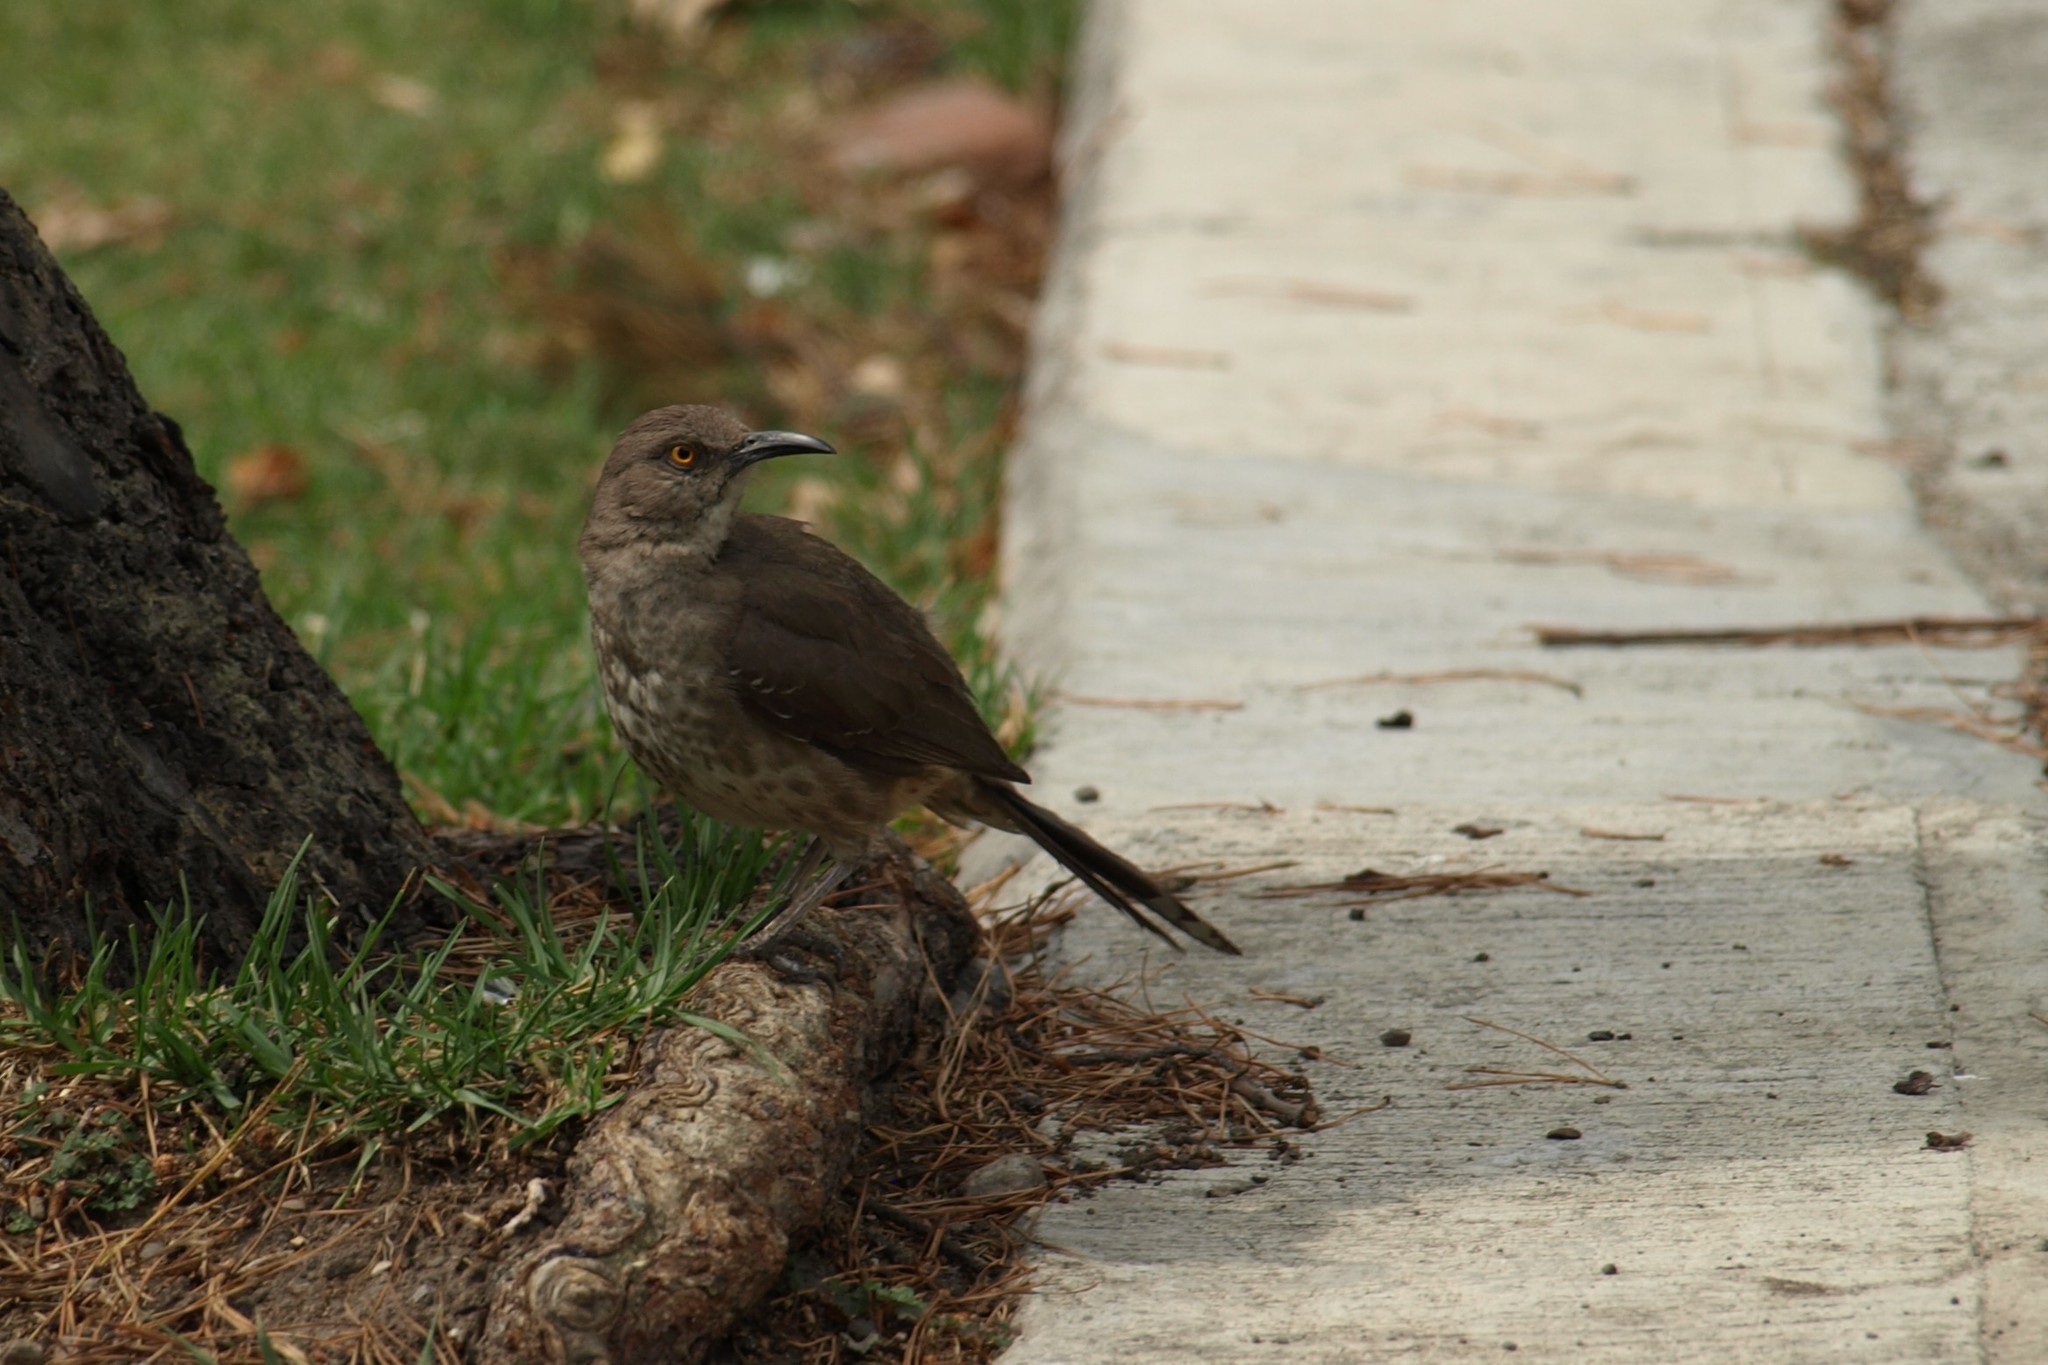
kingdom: Animalia
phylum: Chordata
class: Aves
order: Passeriformes
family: Mimidae
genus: Toxostoma
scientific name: Toxostoma curvirostre
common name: Curve-billed thrasher
